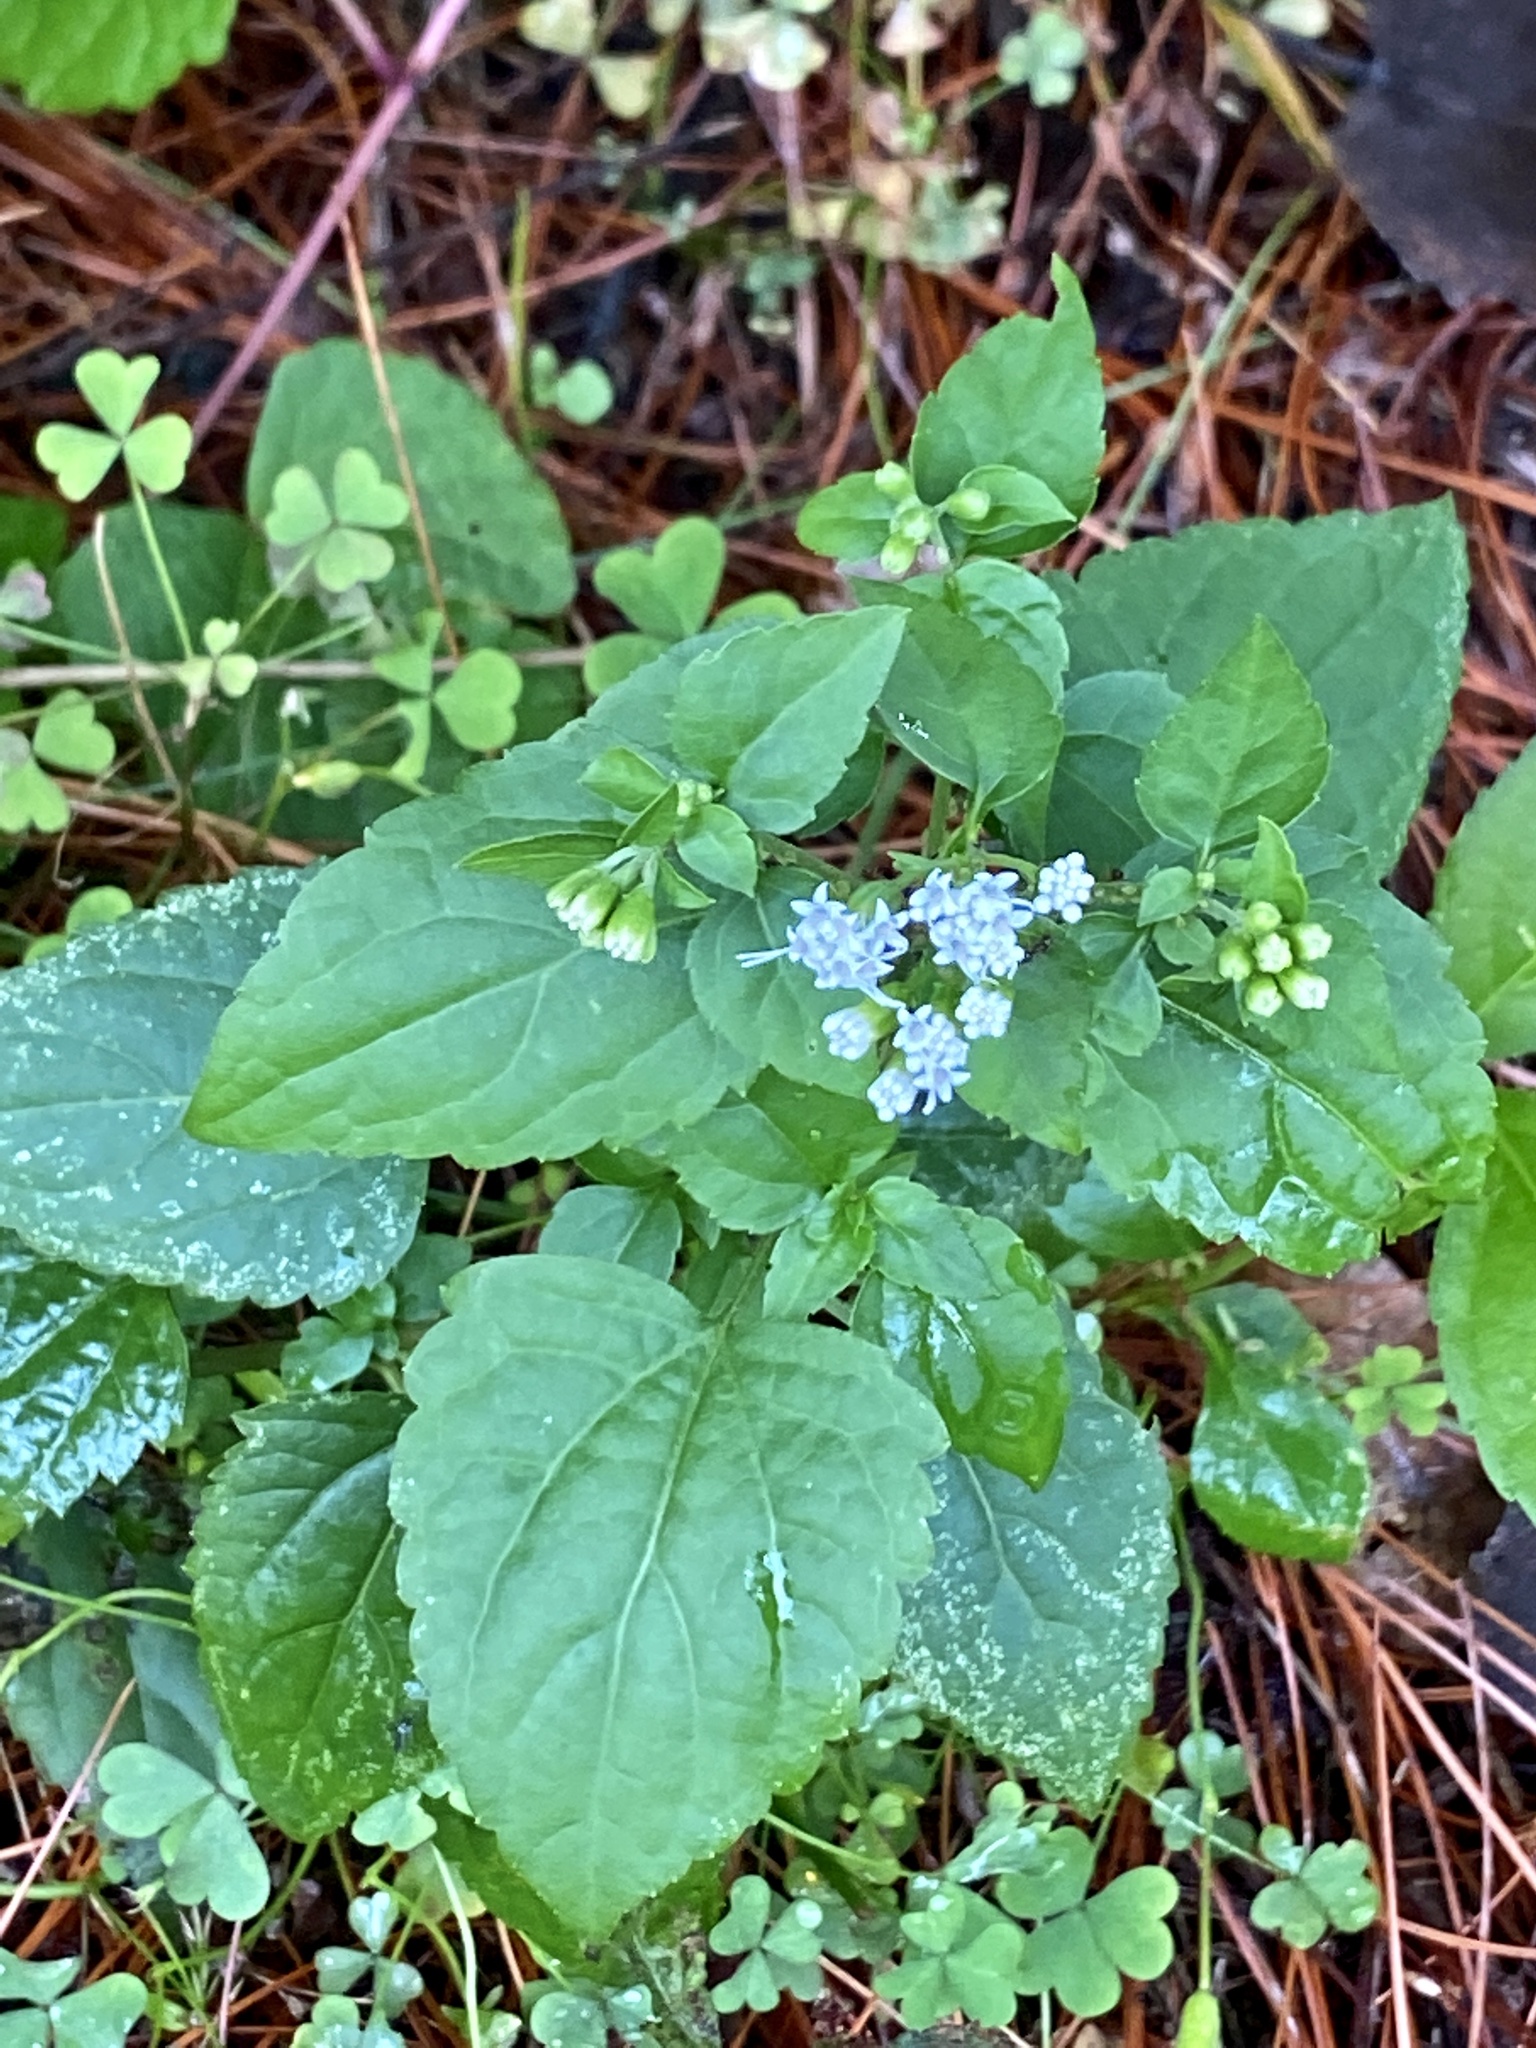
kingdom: Plantae
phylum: Tracheophyta
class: Magnoliopsida
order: Asterales
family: Asteraceae
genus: Ageratina
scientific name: Ageratina altissima
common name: White snakeroot
